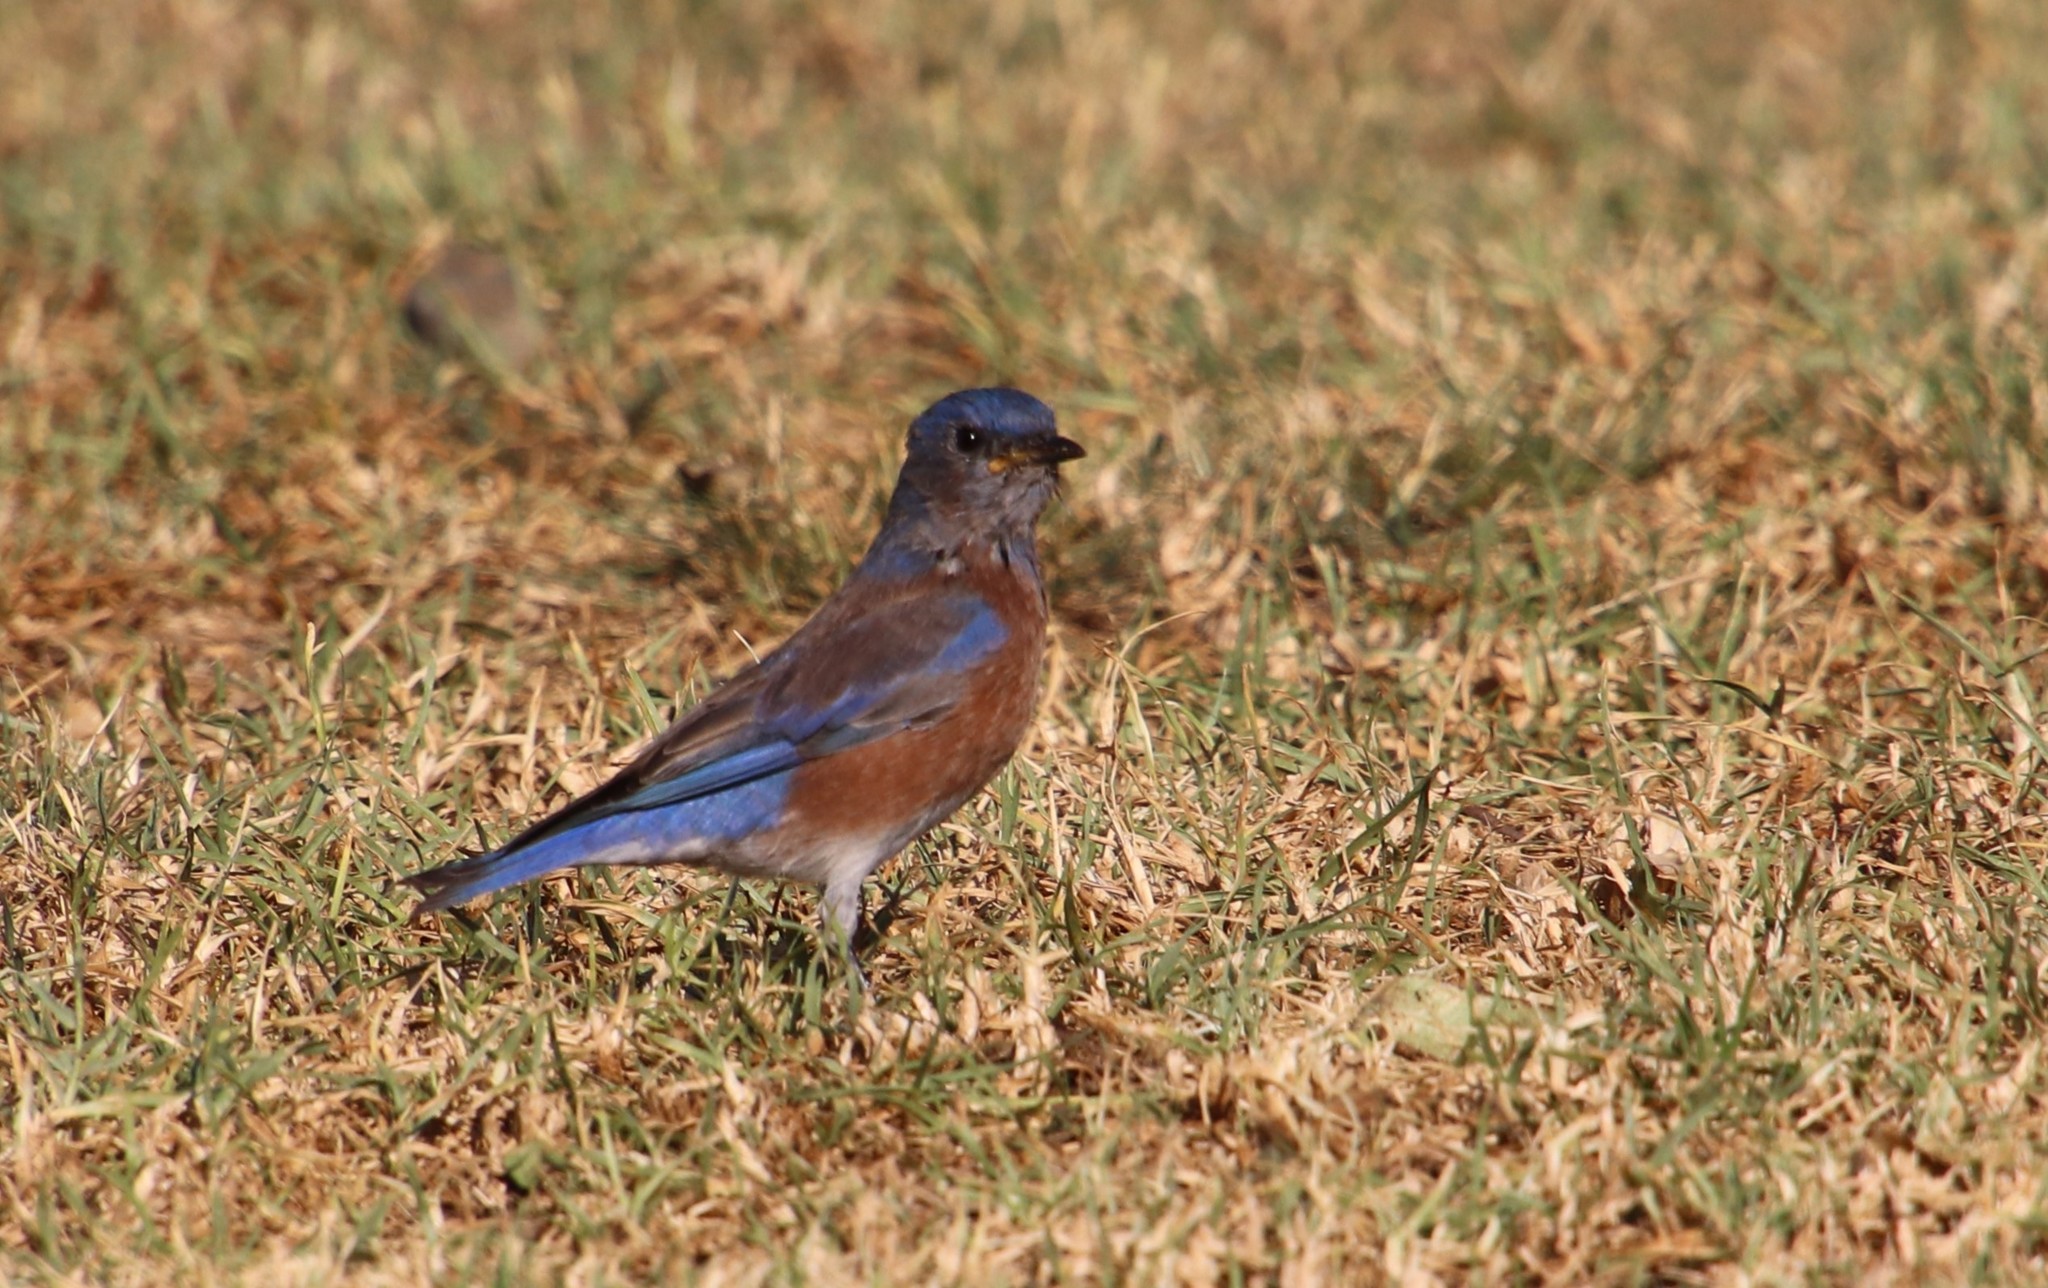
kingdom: Animalia
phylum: Chordata
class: Aves
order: Passeriformes
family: Turdidae
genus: Sialia
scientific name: Sialia mexicana
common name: Western bluebird
